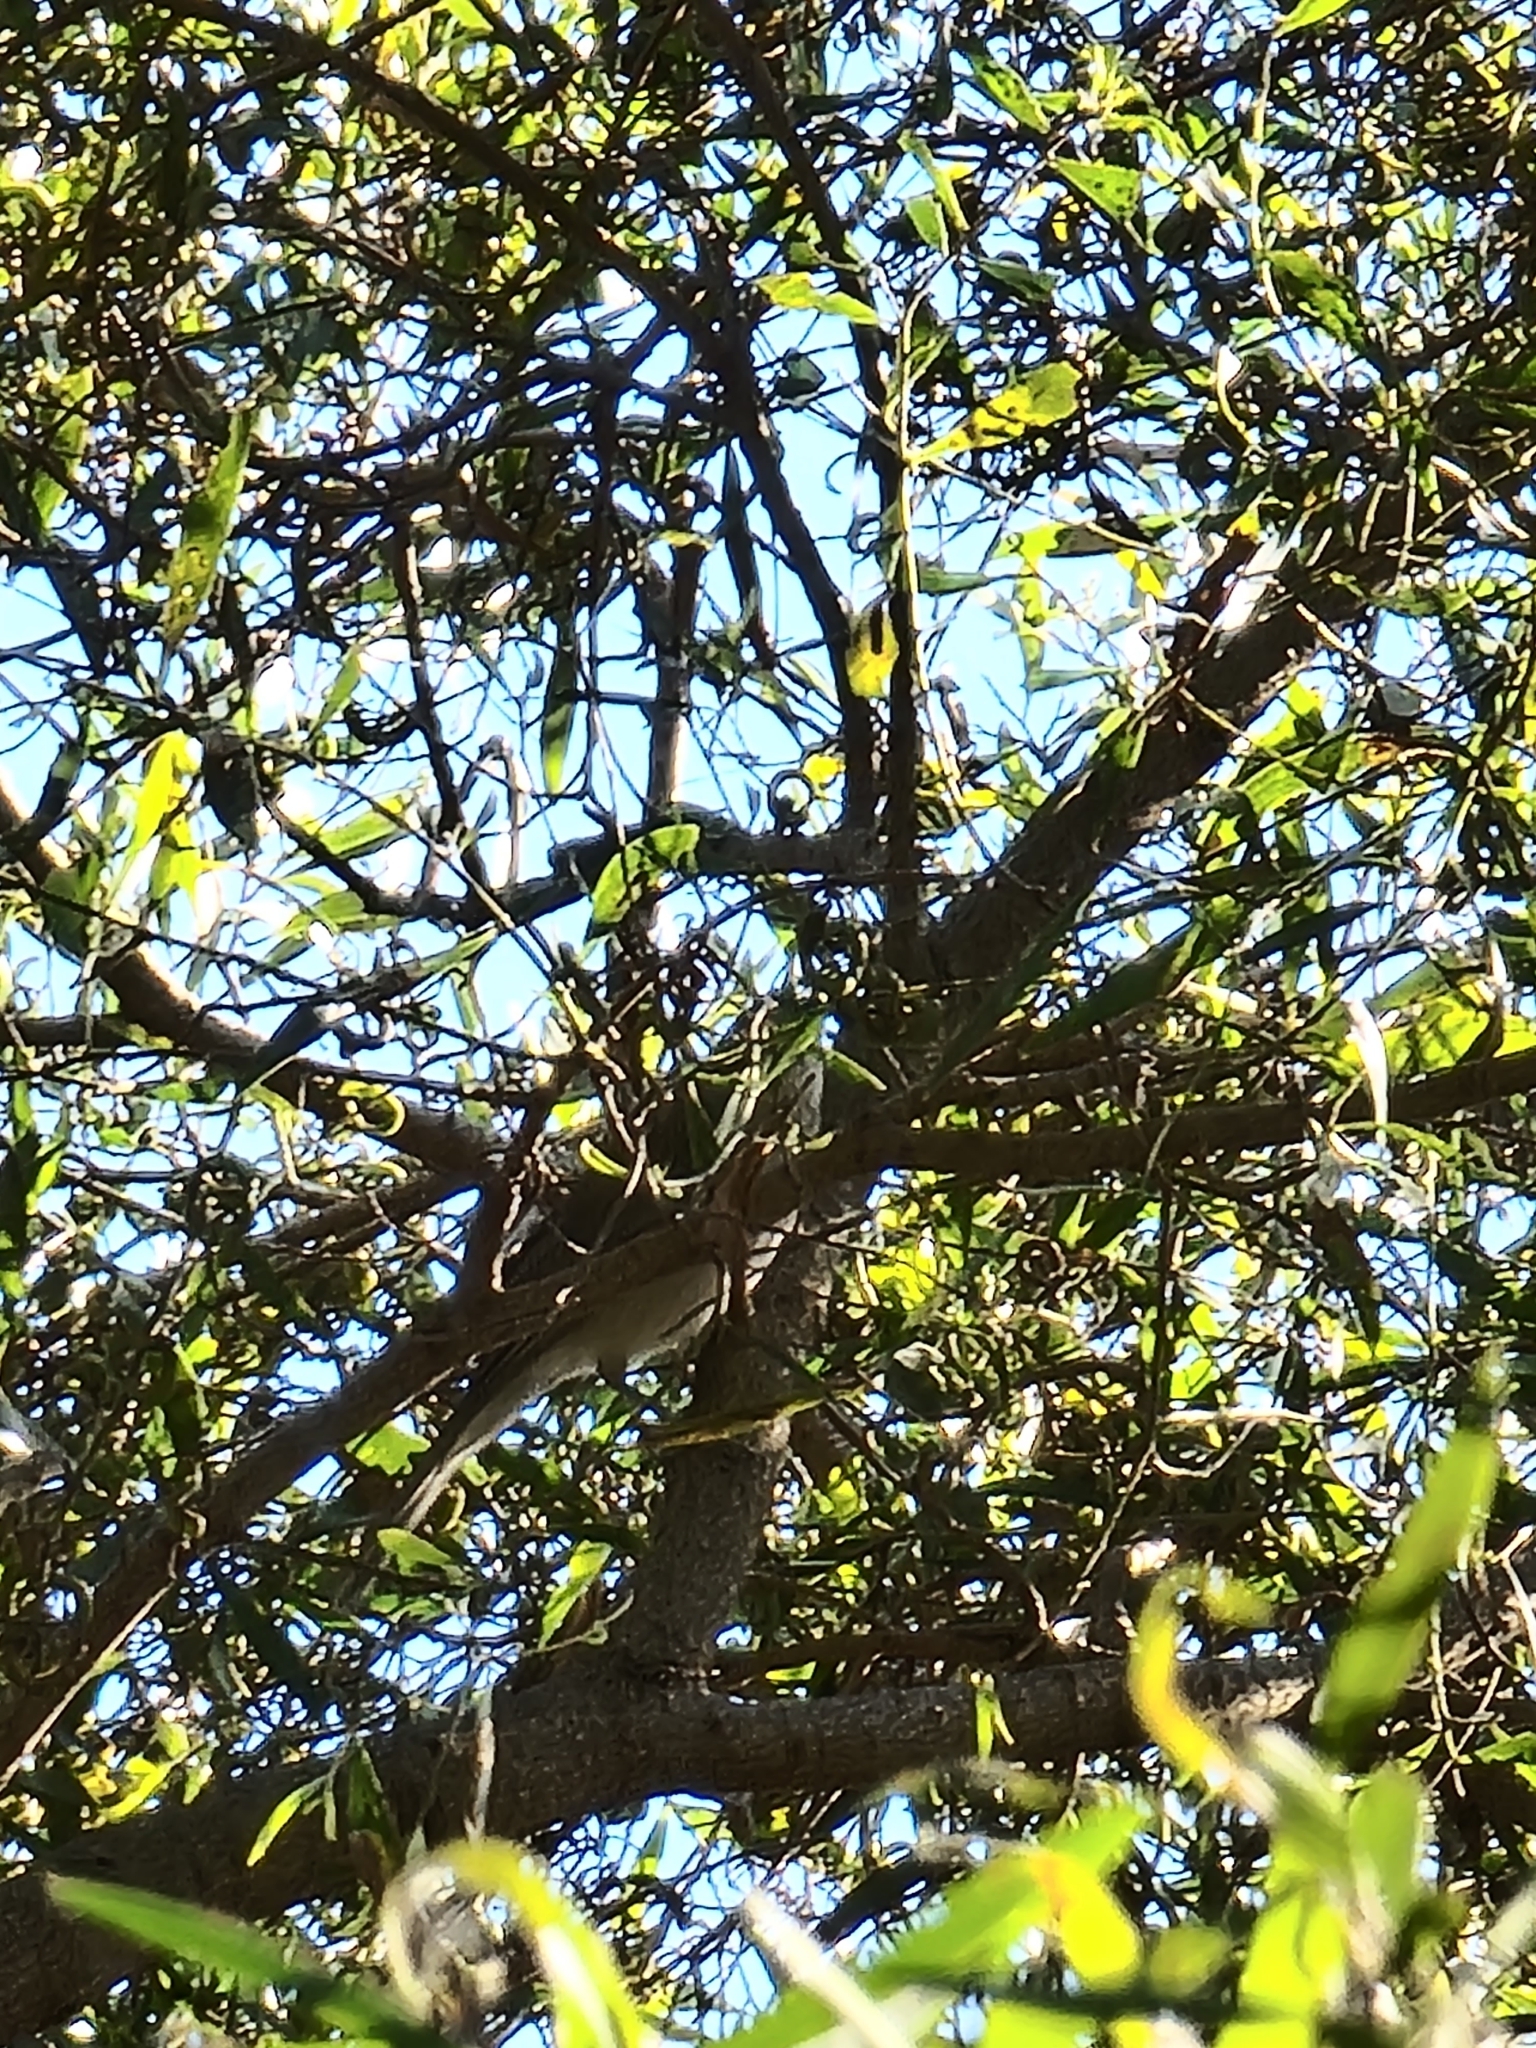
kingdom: Animalia
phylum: Chordata
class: Aves
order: Passeriformes
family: Pachycephalidae
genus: Colluricincla
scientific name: Colluricincla harmonica
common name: Grey shrikethrush
